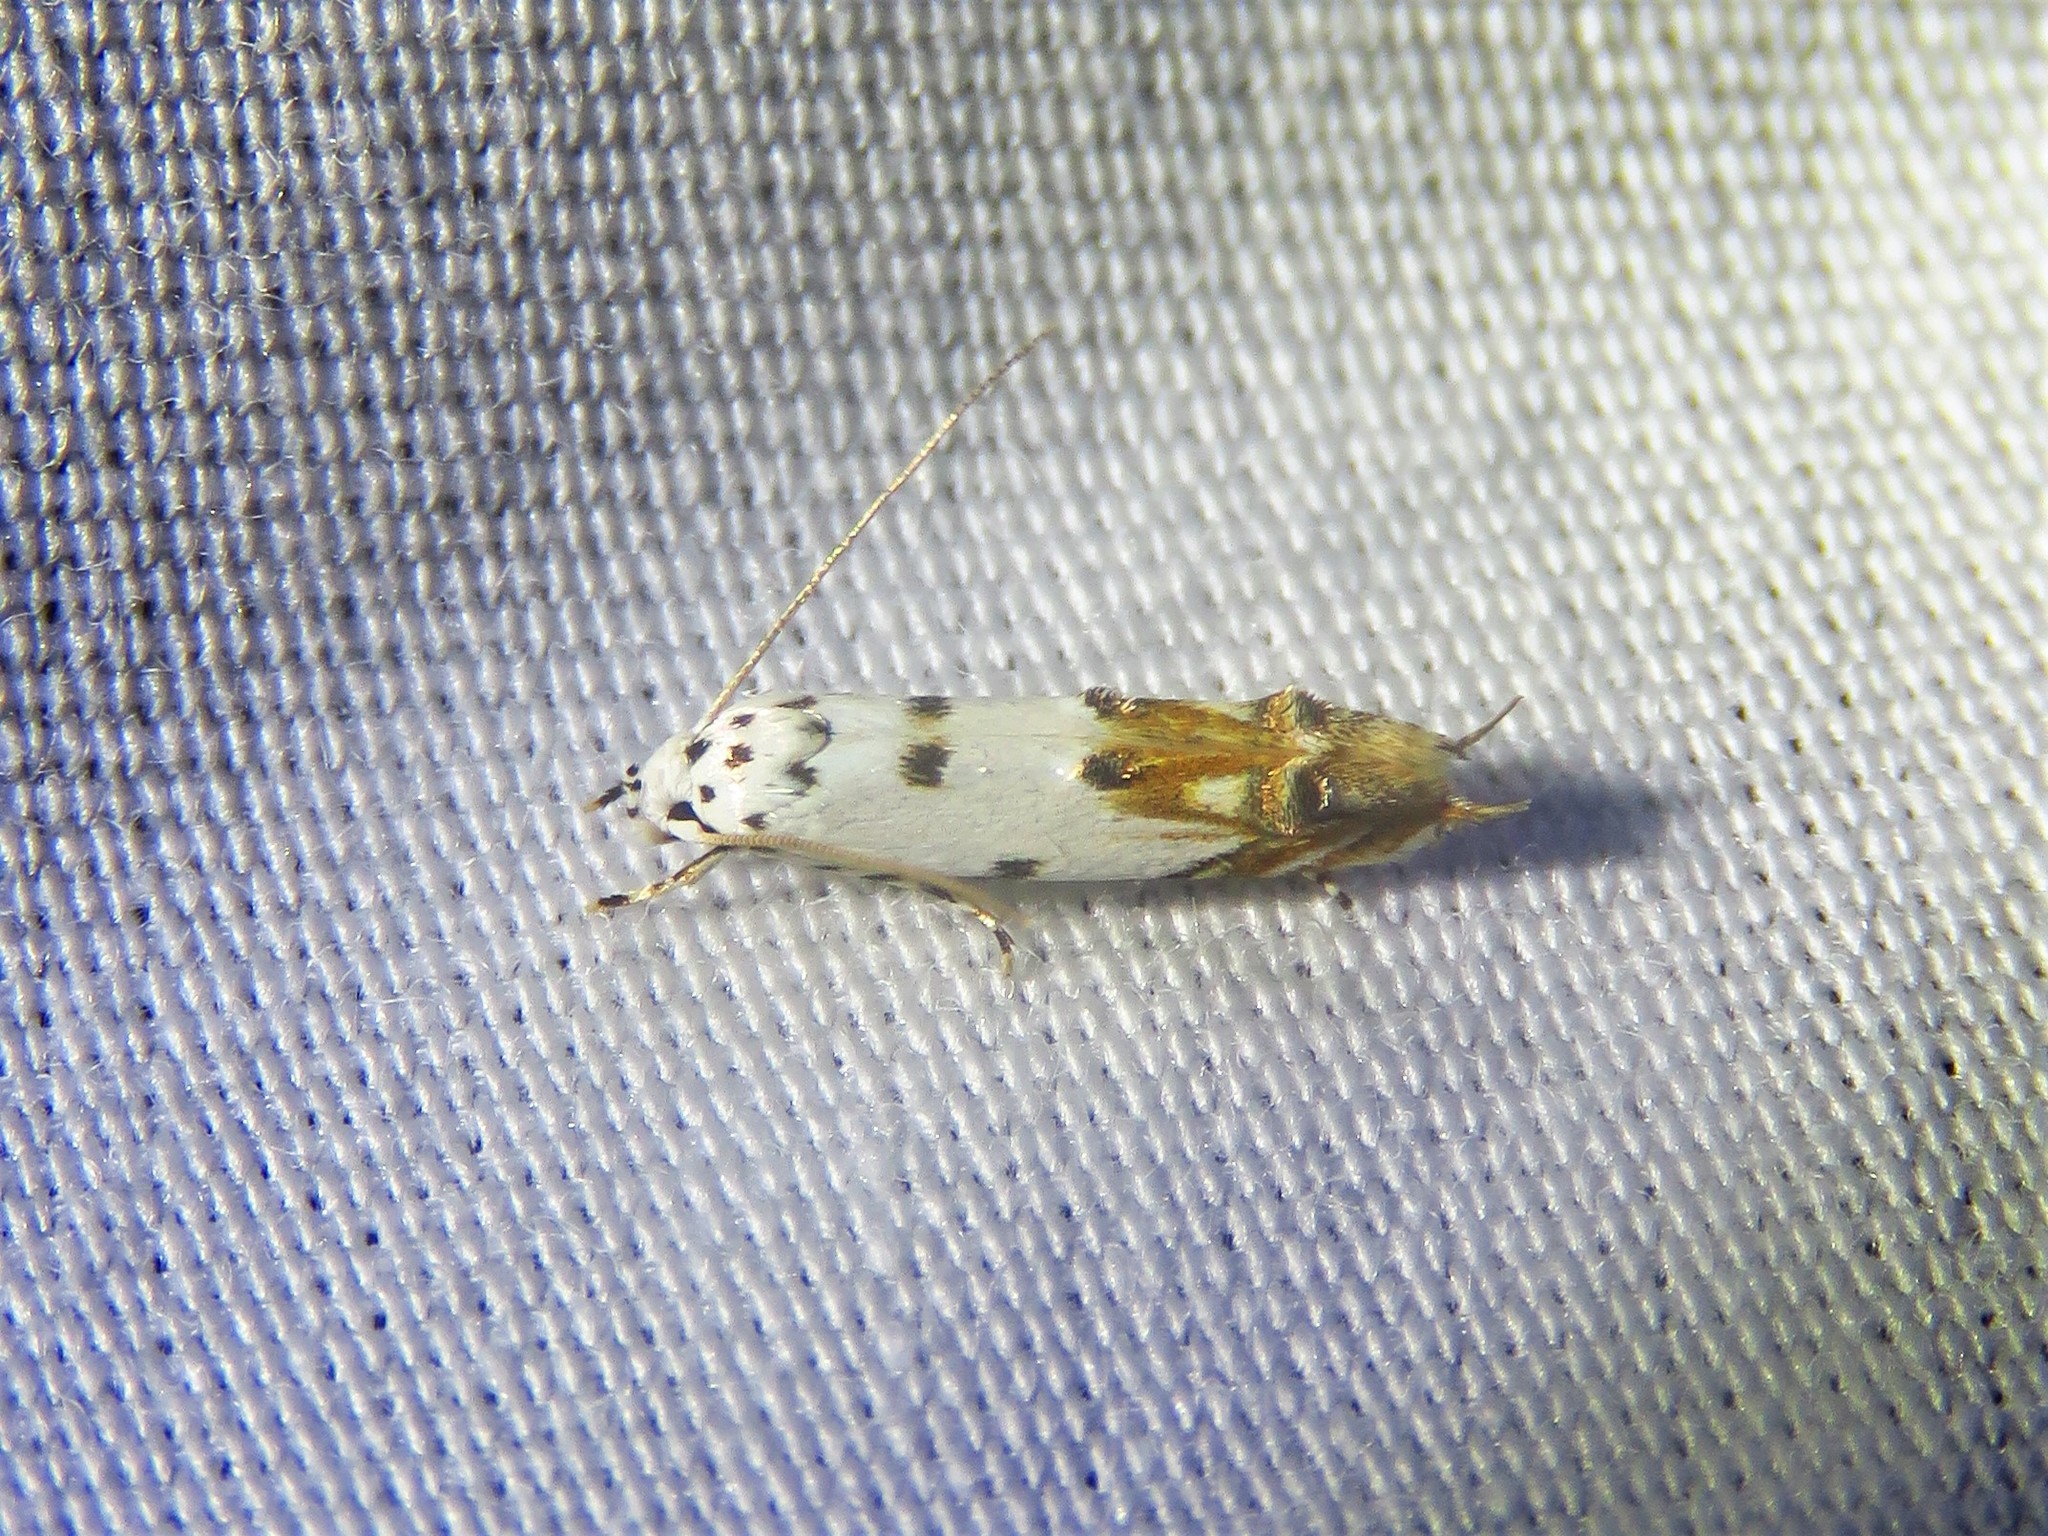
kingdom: Animalia
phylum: Arthropoda
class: Insecta
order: Lepidoptera
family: Momphidae
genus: Mompha
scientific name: Mompha eloisella
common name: Red-streaked mompha moth
